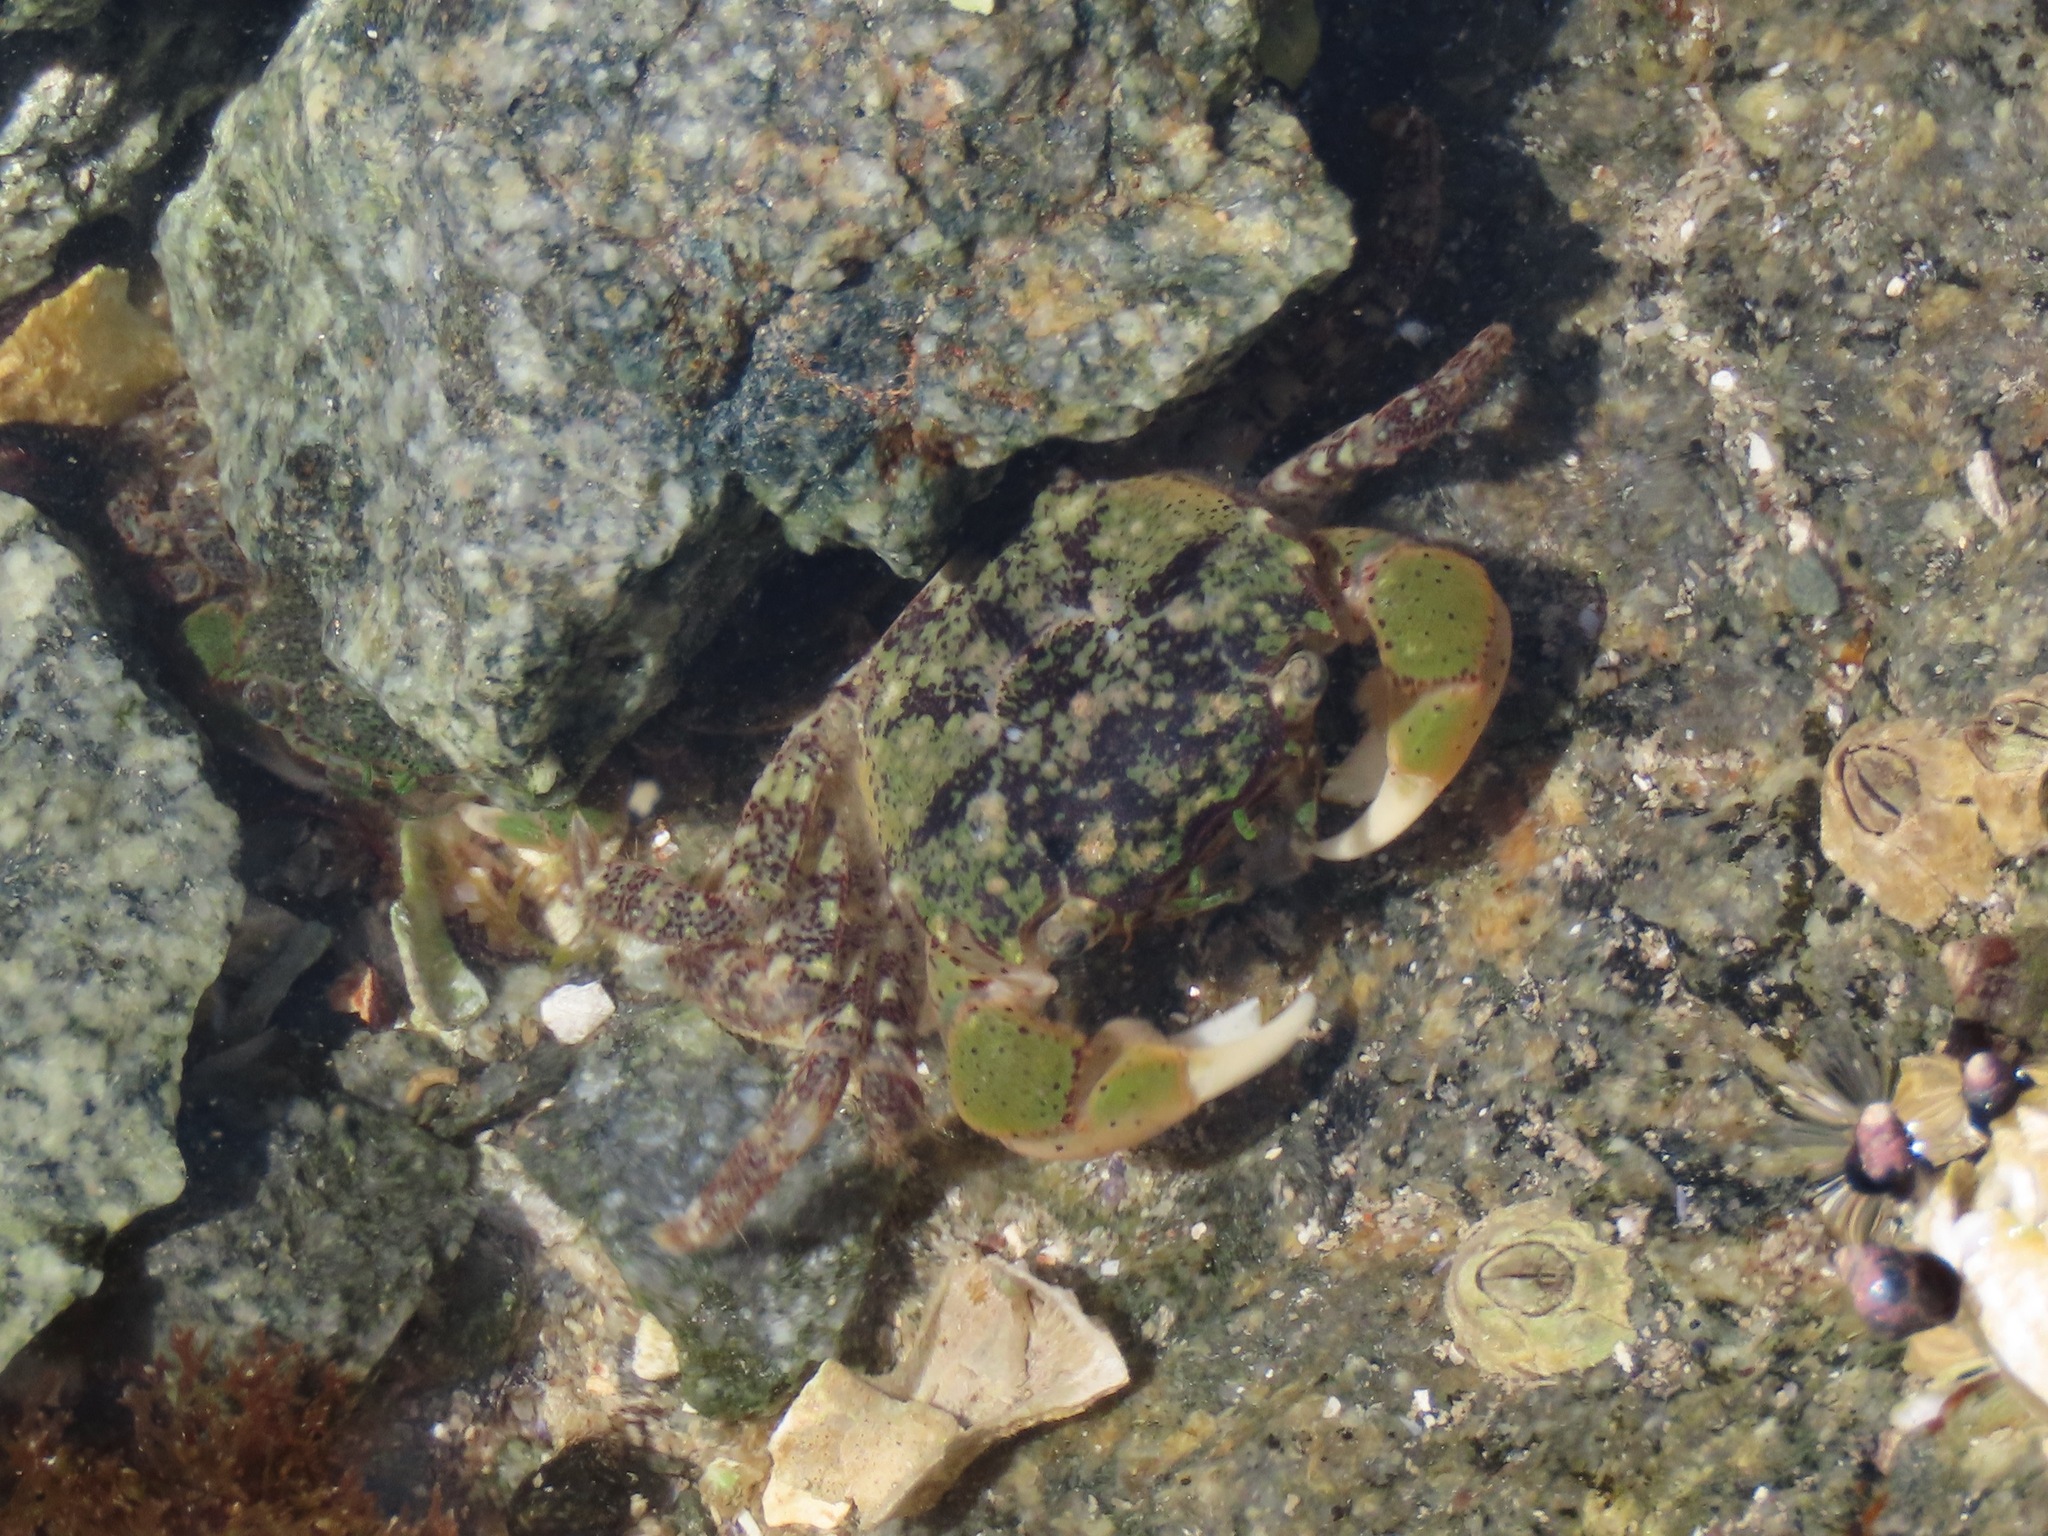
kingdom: Animalia
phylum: Arthropoda
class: Malacostraca
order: Decapoda
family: Varunidae
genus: Hemigrapsus
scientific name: Hemigrapsus oregonensis
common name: Yellow shore crab
